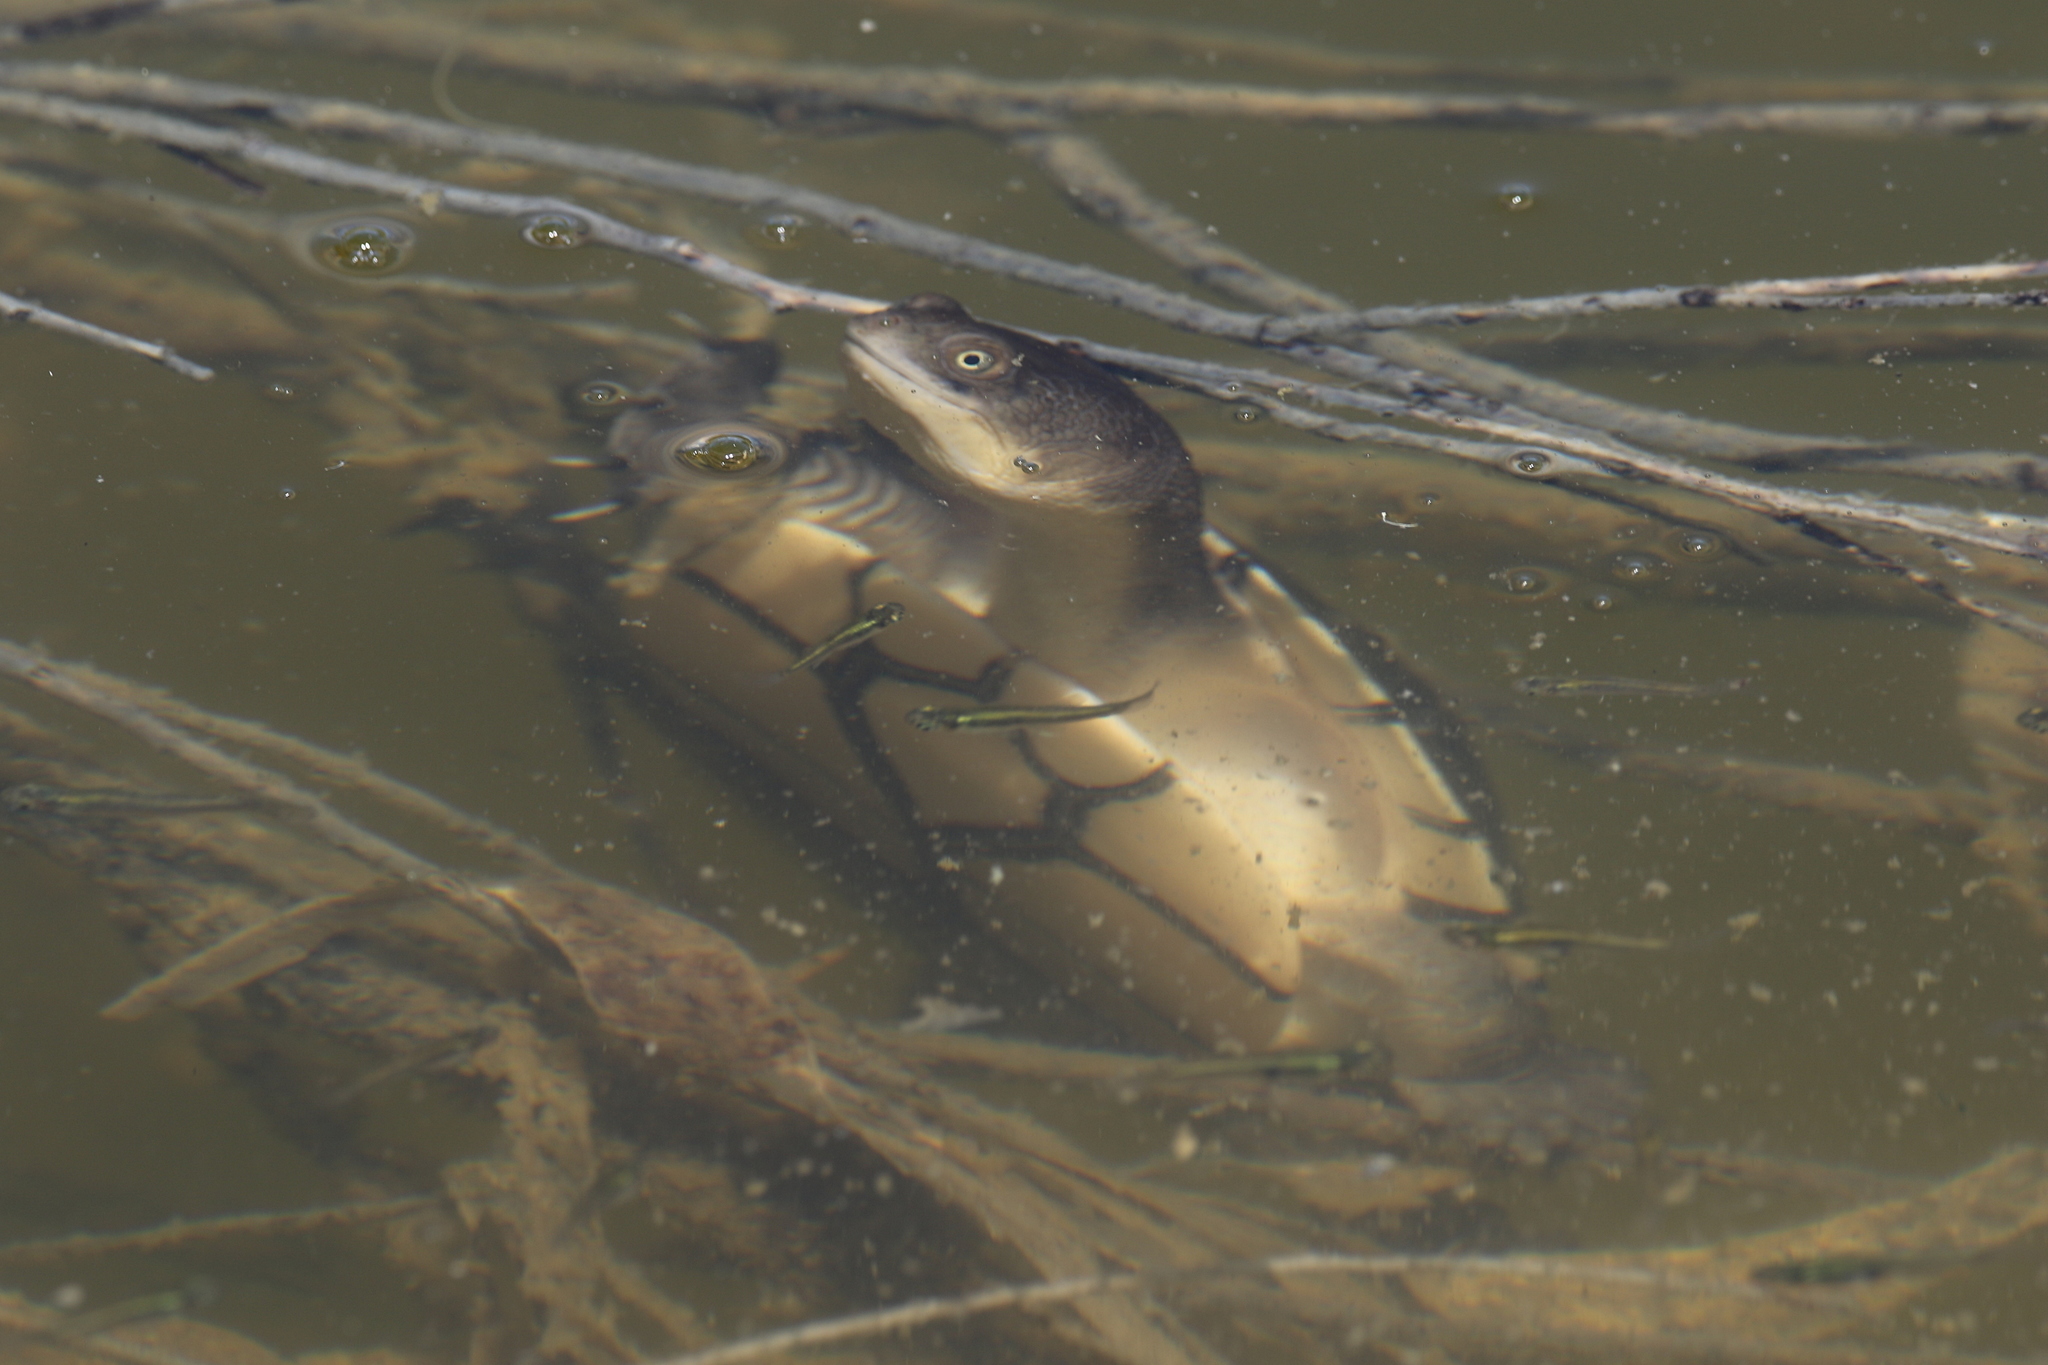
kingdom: Animalia
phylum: Chordata
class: Testudines
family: Chelidae
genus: Chelodina
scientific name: Chelodina longicollis
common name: Eastern snake-necked turtle
